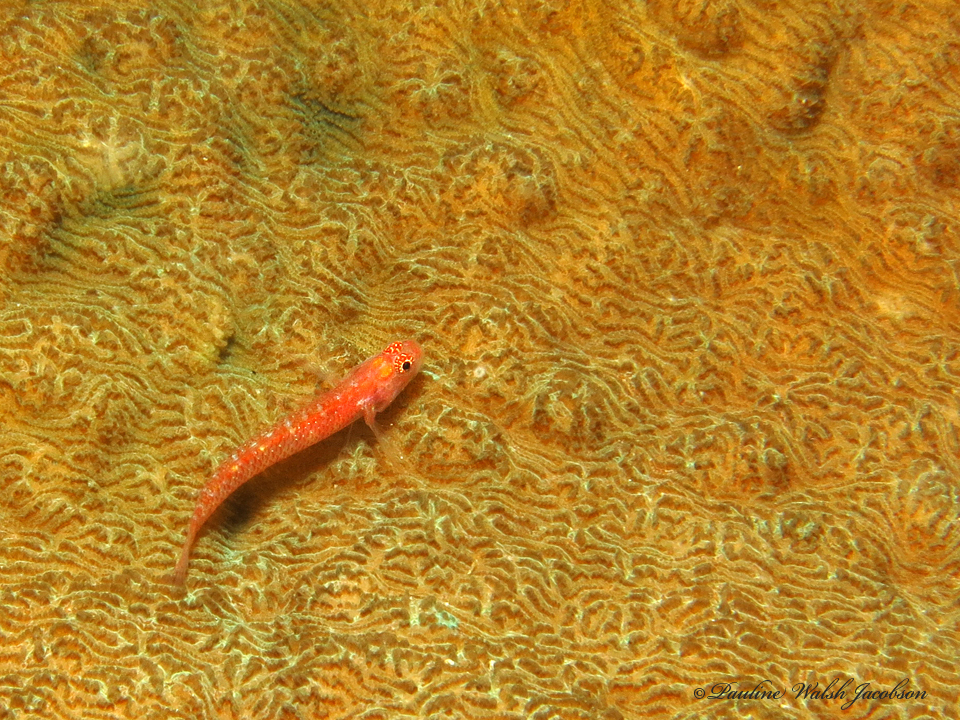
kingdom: Animalia
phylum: Chordata
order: Perciformes
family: Gobiidae
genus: Eviota
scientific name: Eviota fallax
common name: Twin dwarfgoby
